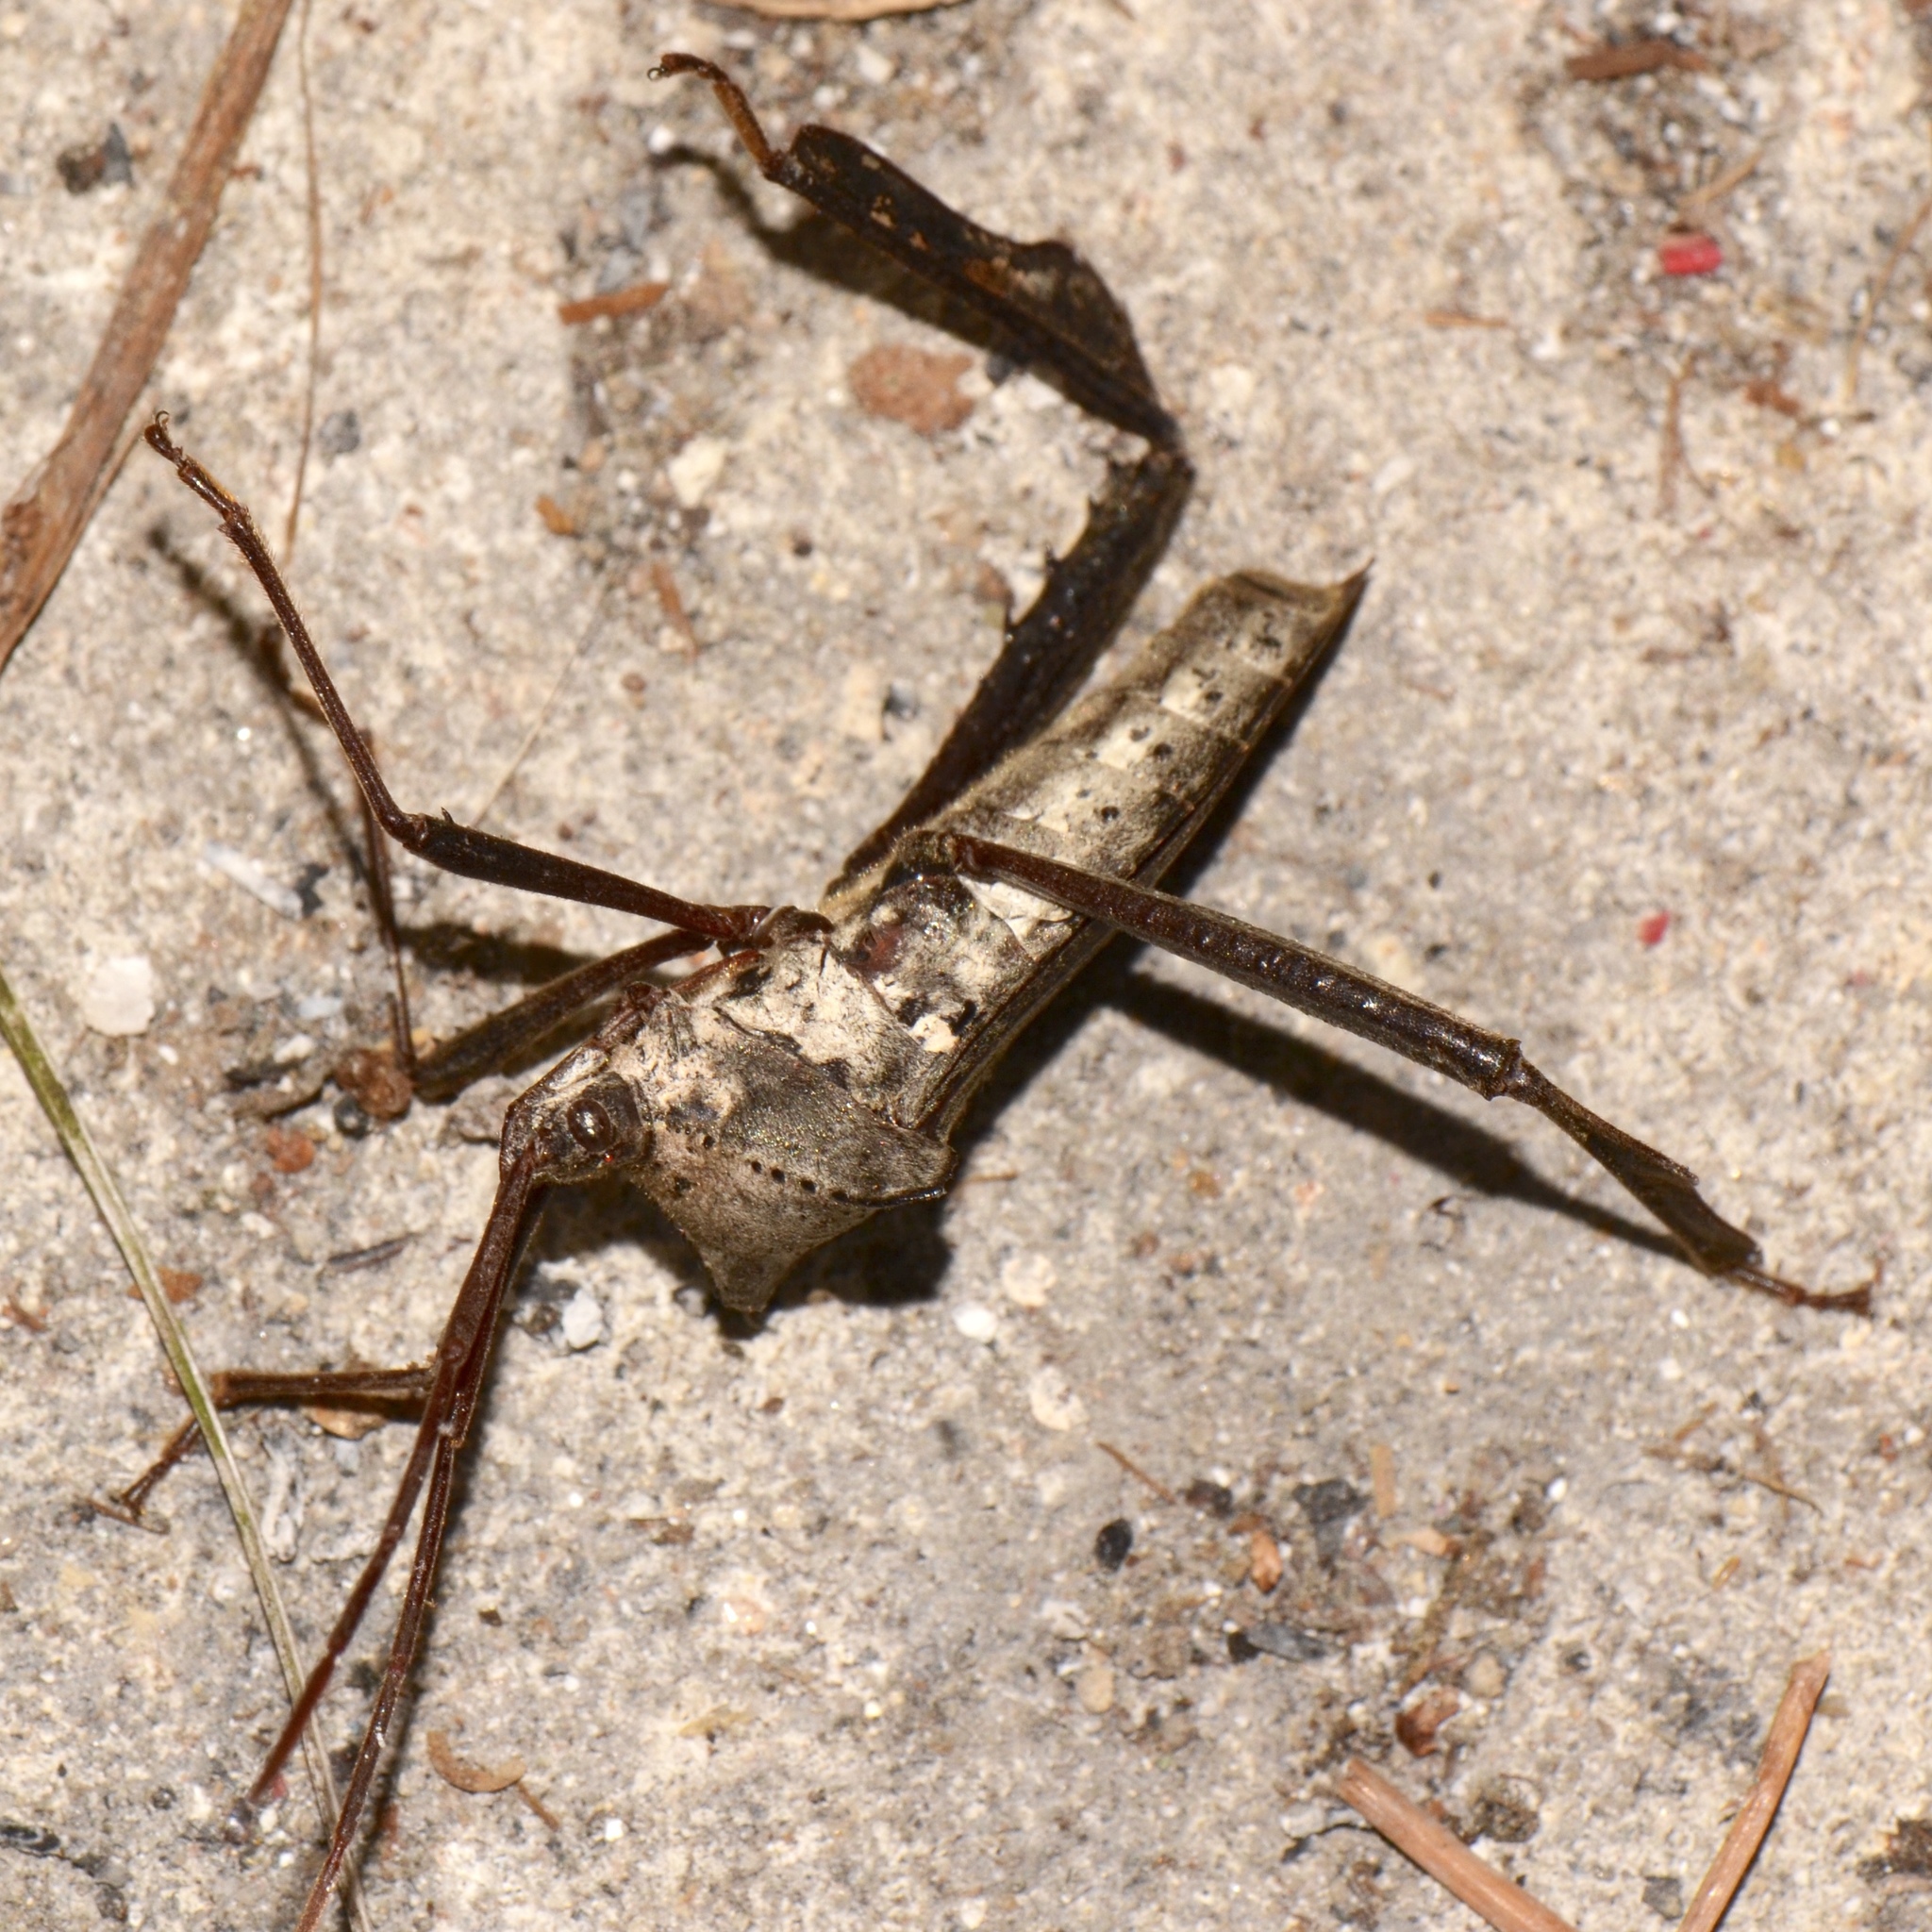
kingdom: Animalia
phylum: Arthropoda
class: Insecta
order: Hemiptera
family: Coreidae
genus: Acanthocephala
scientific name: Acanthocephala declivis
